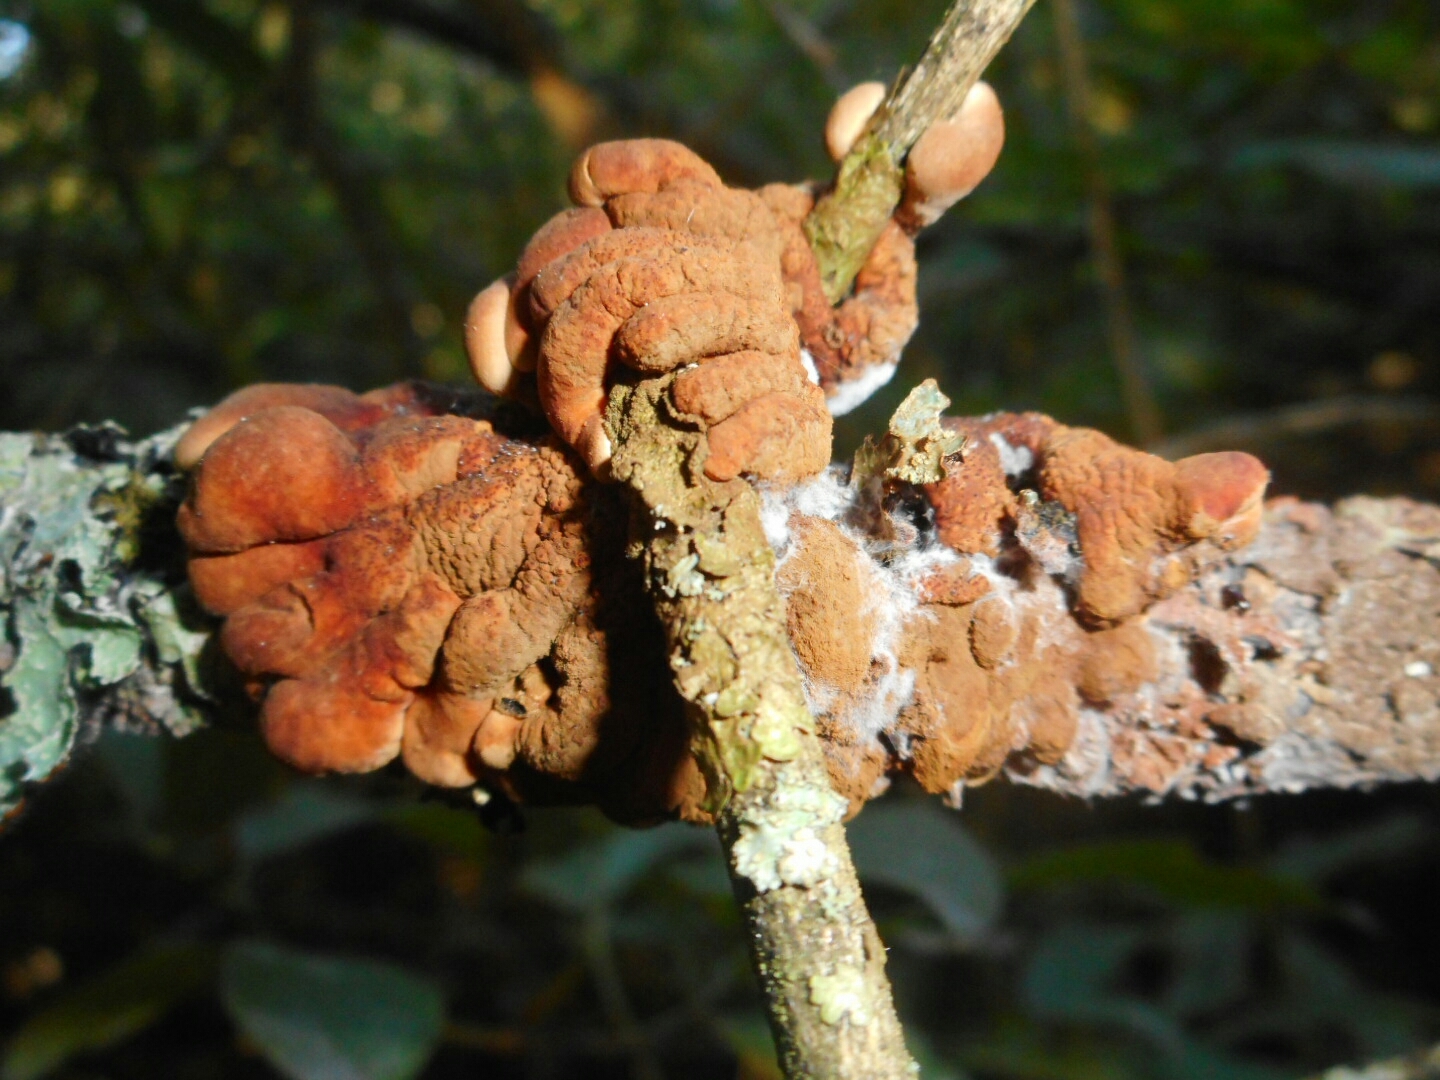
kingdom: Fungi
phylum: Ascomycota
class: Sordariomycetes
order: Hypocreales
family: Hypocreaceae
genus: Hypocreopsis
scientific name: Hypocreopsis lichenoides
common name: Willow gloves
